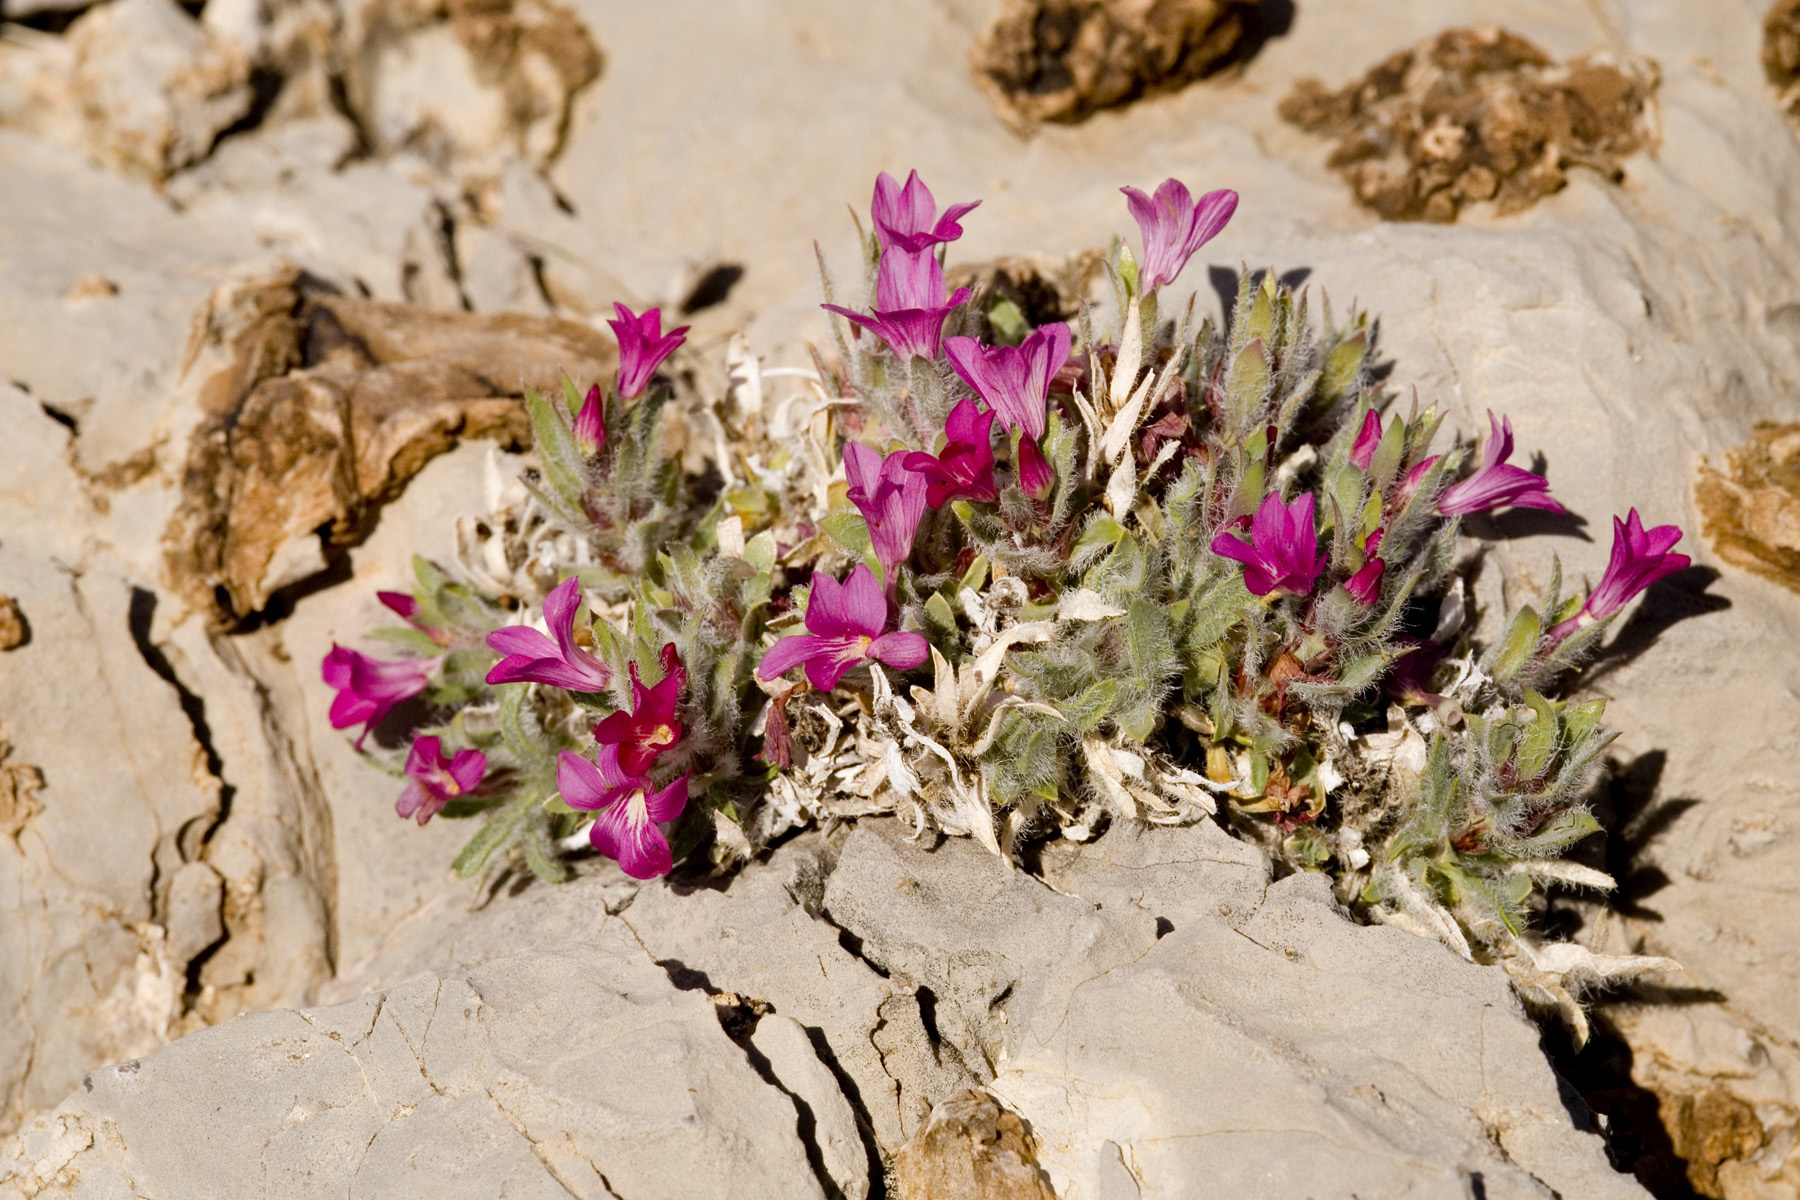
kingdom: Plantae
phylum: Tracheophyta
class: Magnoliopsida
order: Lamiales
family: Acanthaceae
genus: Stenandrium
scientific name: Stenandrium barbatum
